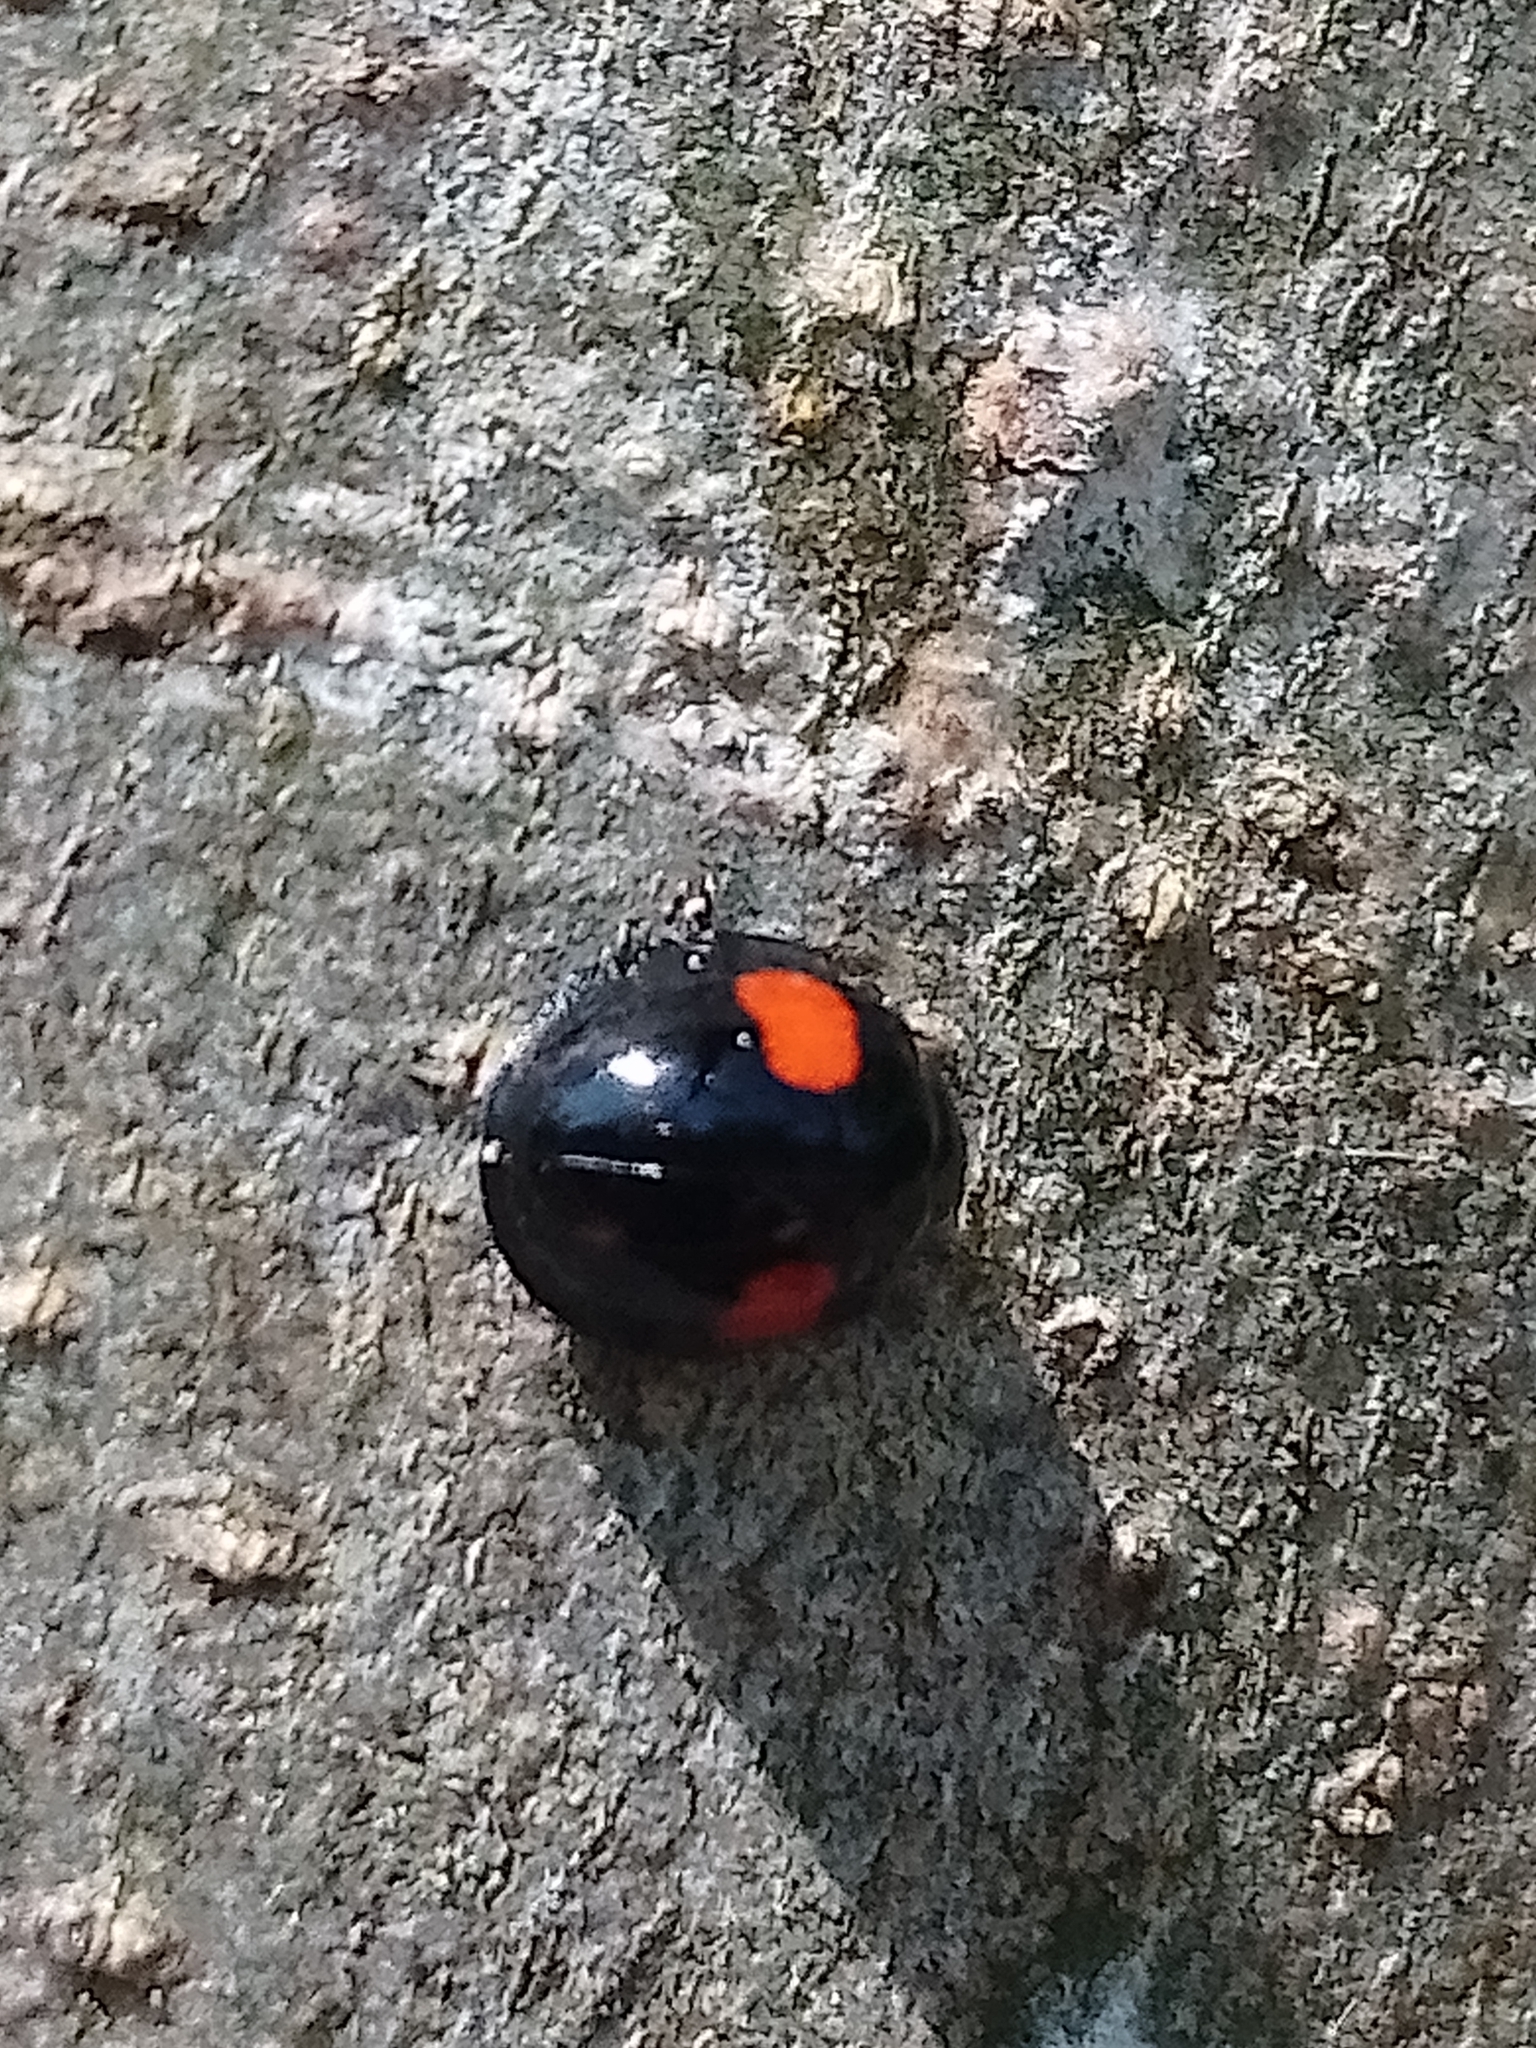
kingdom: Animalia
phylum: Arthropoda
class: Insecta
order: Coleoptera
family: Coccinellidae
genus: Chilocorus
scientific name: Chilocorus renipustulatus
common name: Kidney-spot ladybird
